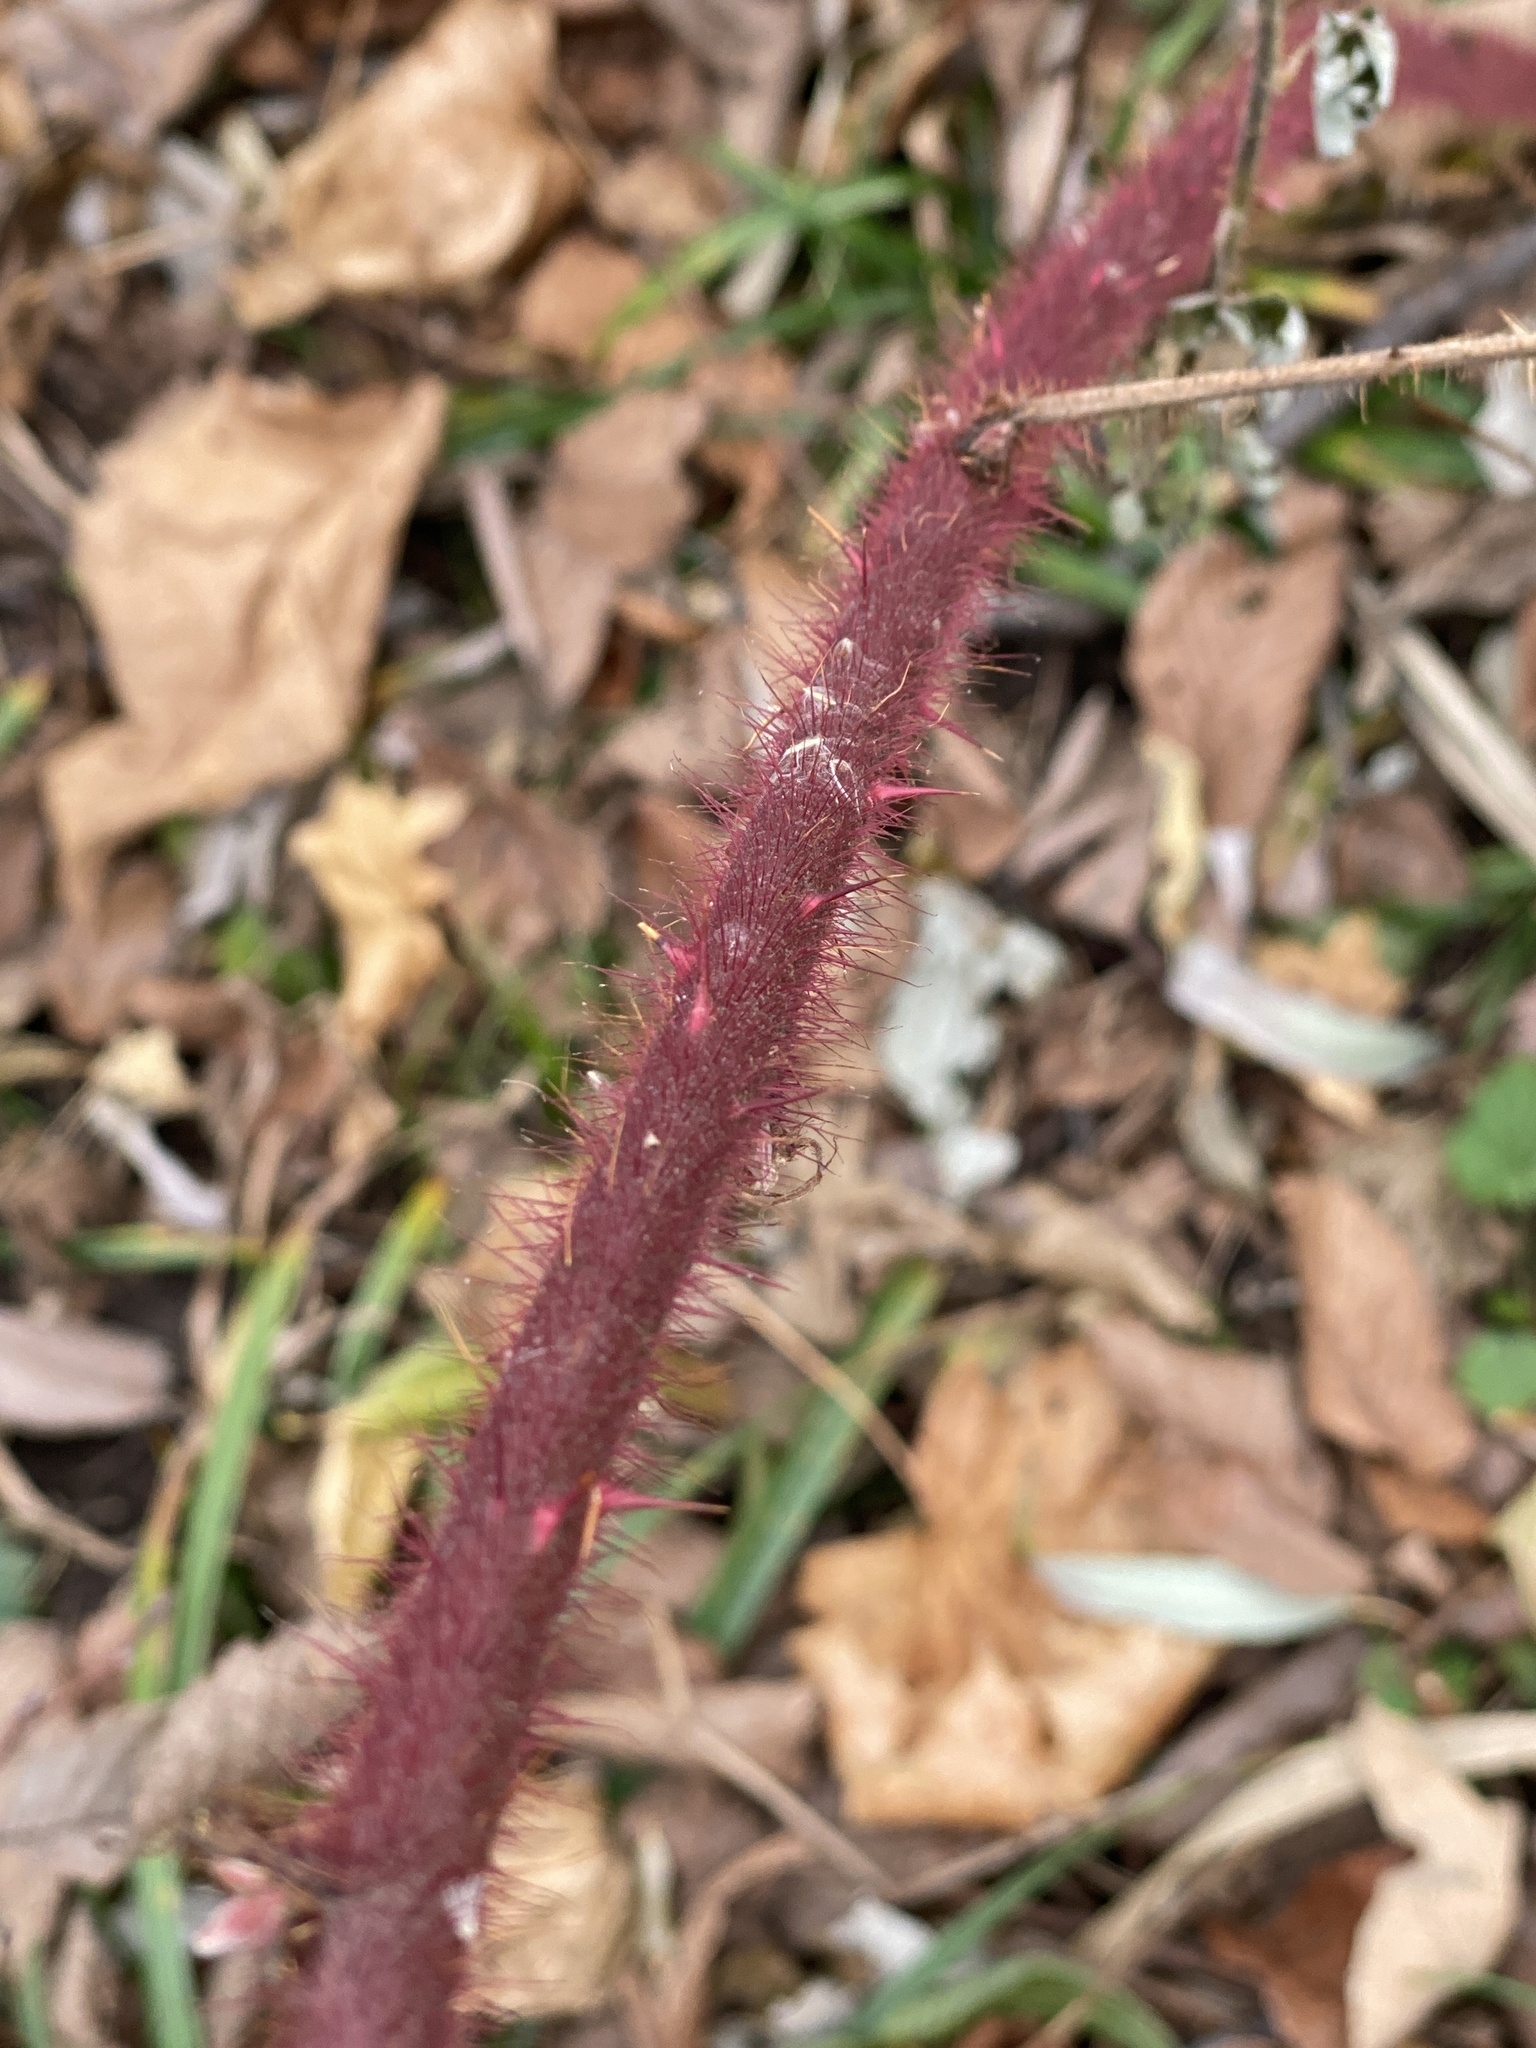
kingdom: Plantae
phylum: Tracheophyta
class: Magnoliopsida
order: Rosales
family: Rosaceae
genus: Rubus
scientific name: Rubus phoenicolasius
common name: Japanese wineberry
